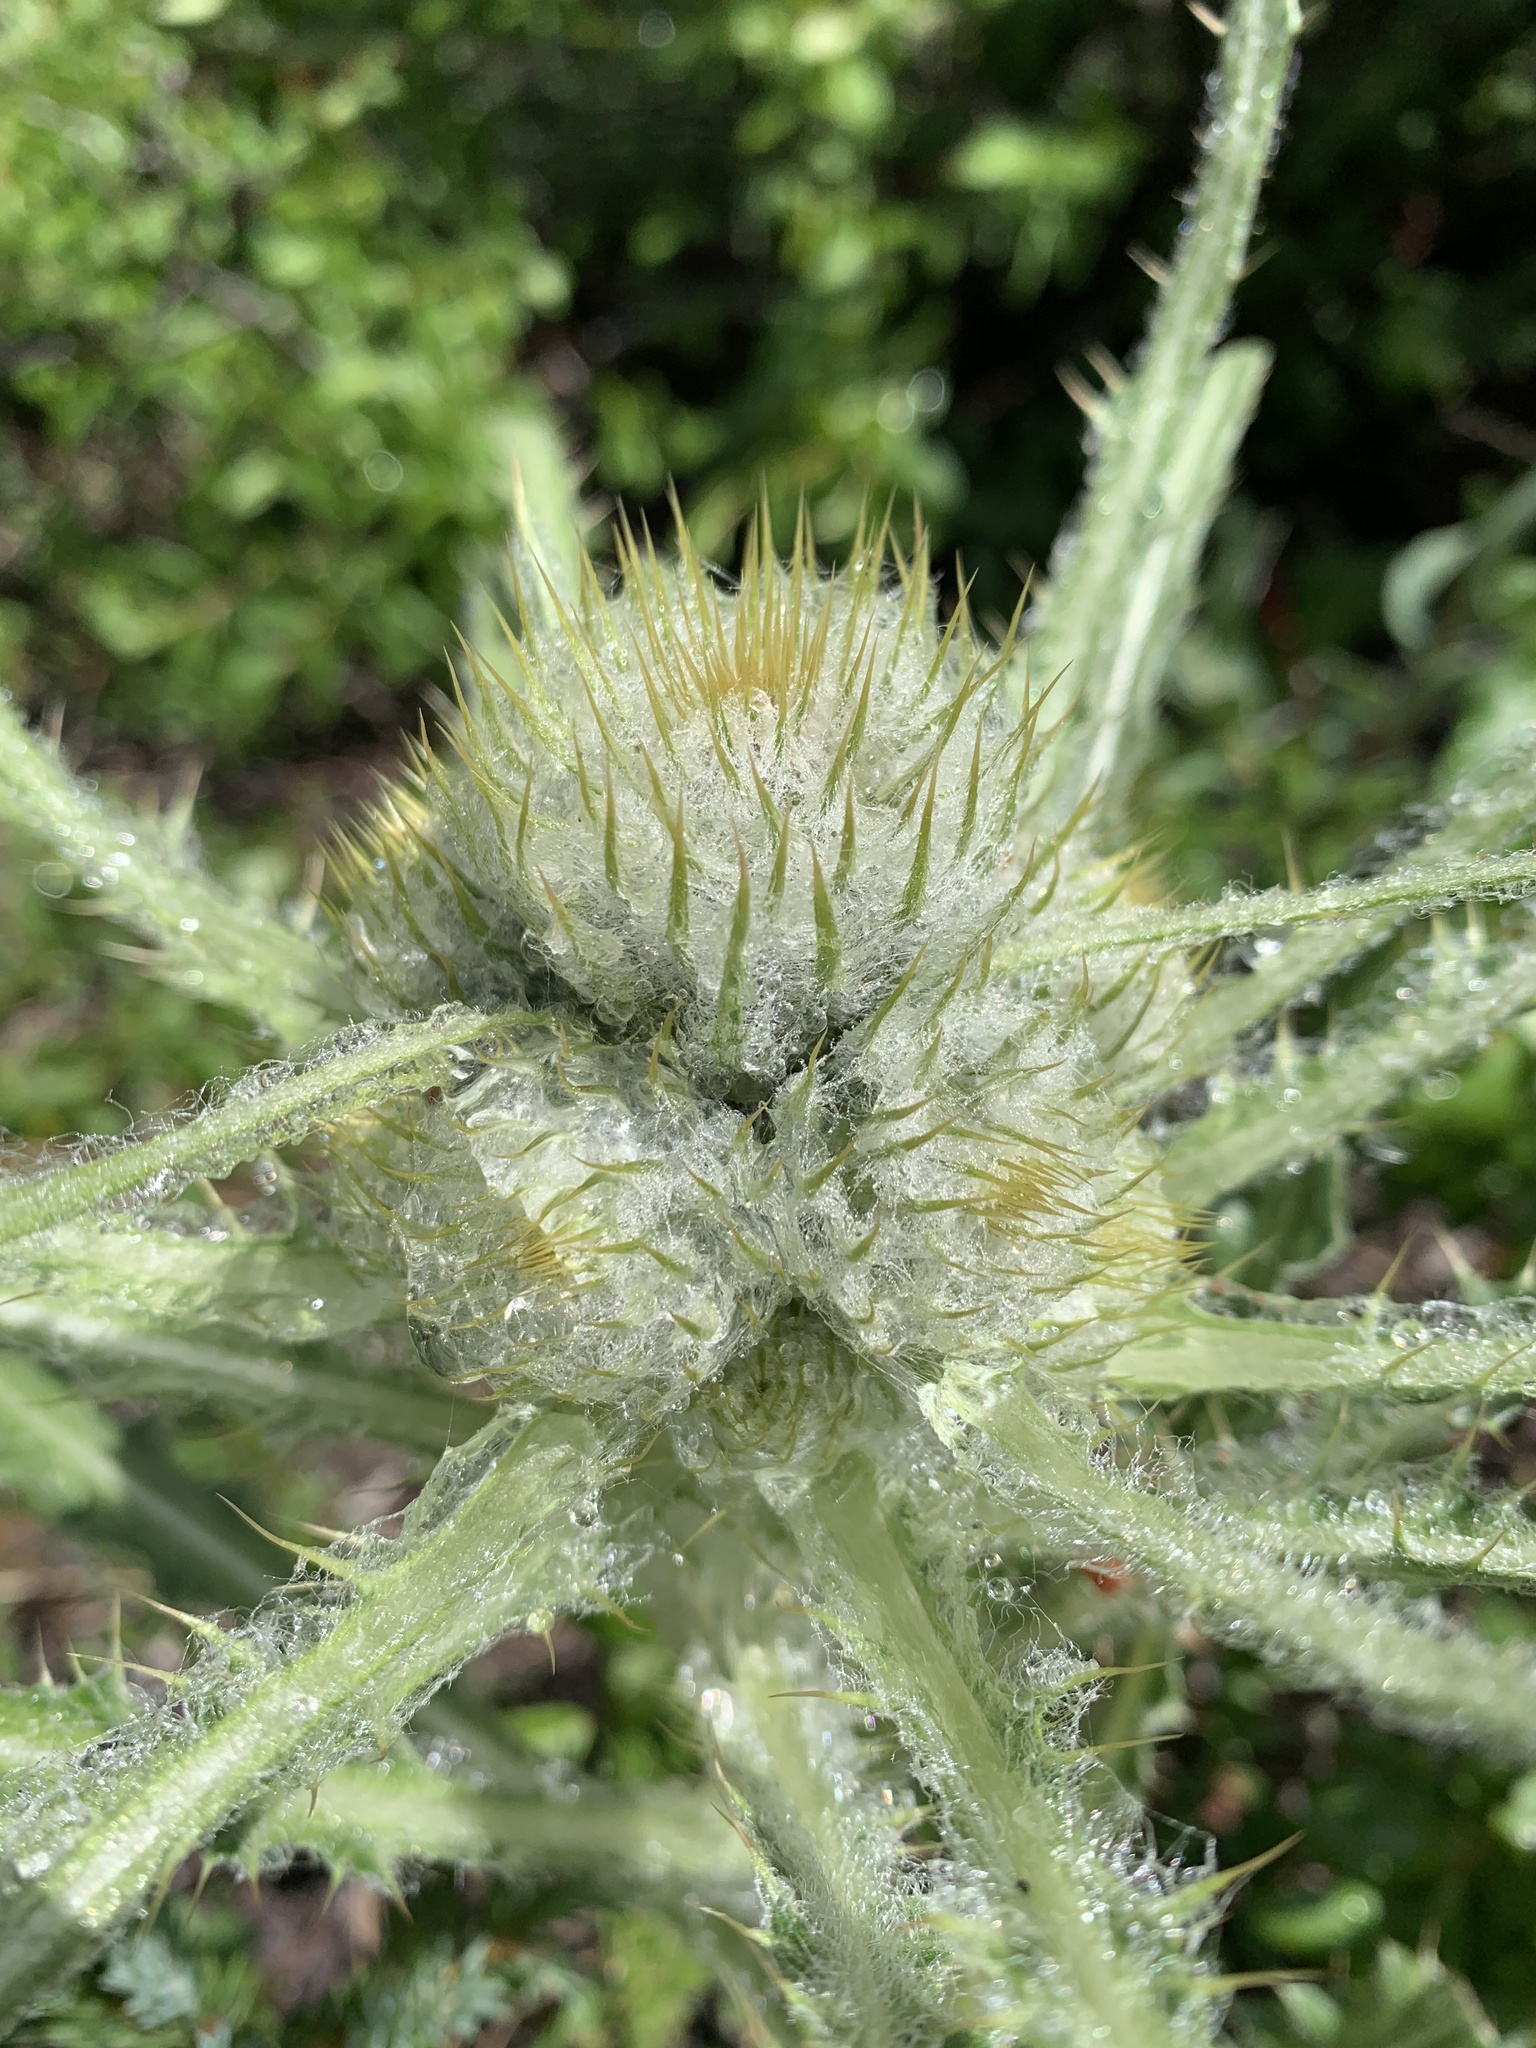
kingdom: Plantae
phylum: Tracheophyta
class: Magnoliopsida
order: Asterales
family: Asteraceae
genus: Cirsium
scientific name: Cirsium hookerianum
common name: Hooker's thistle
